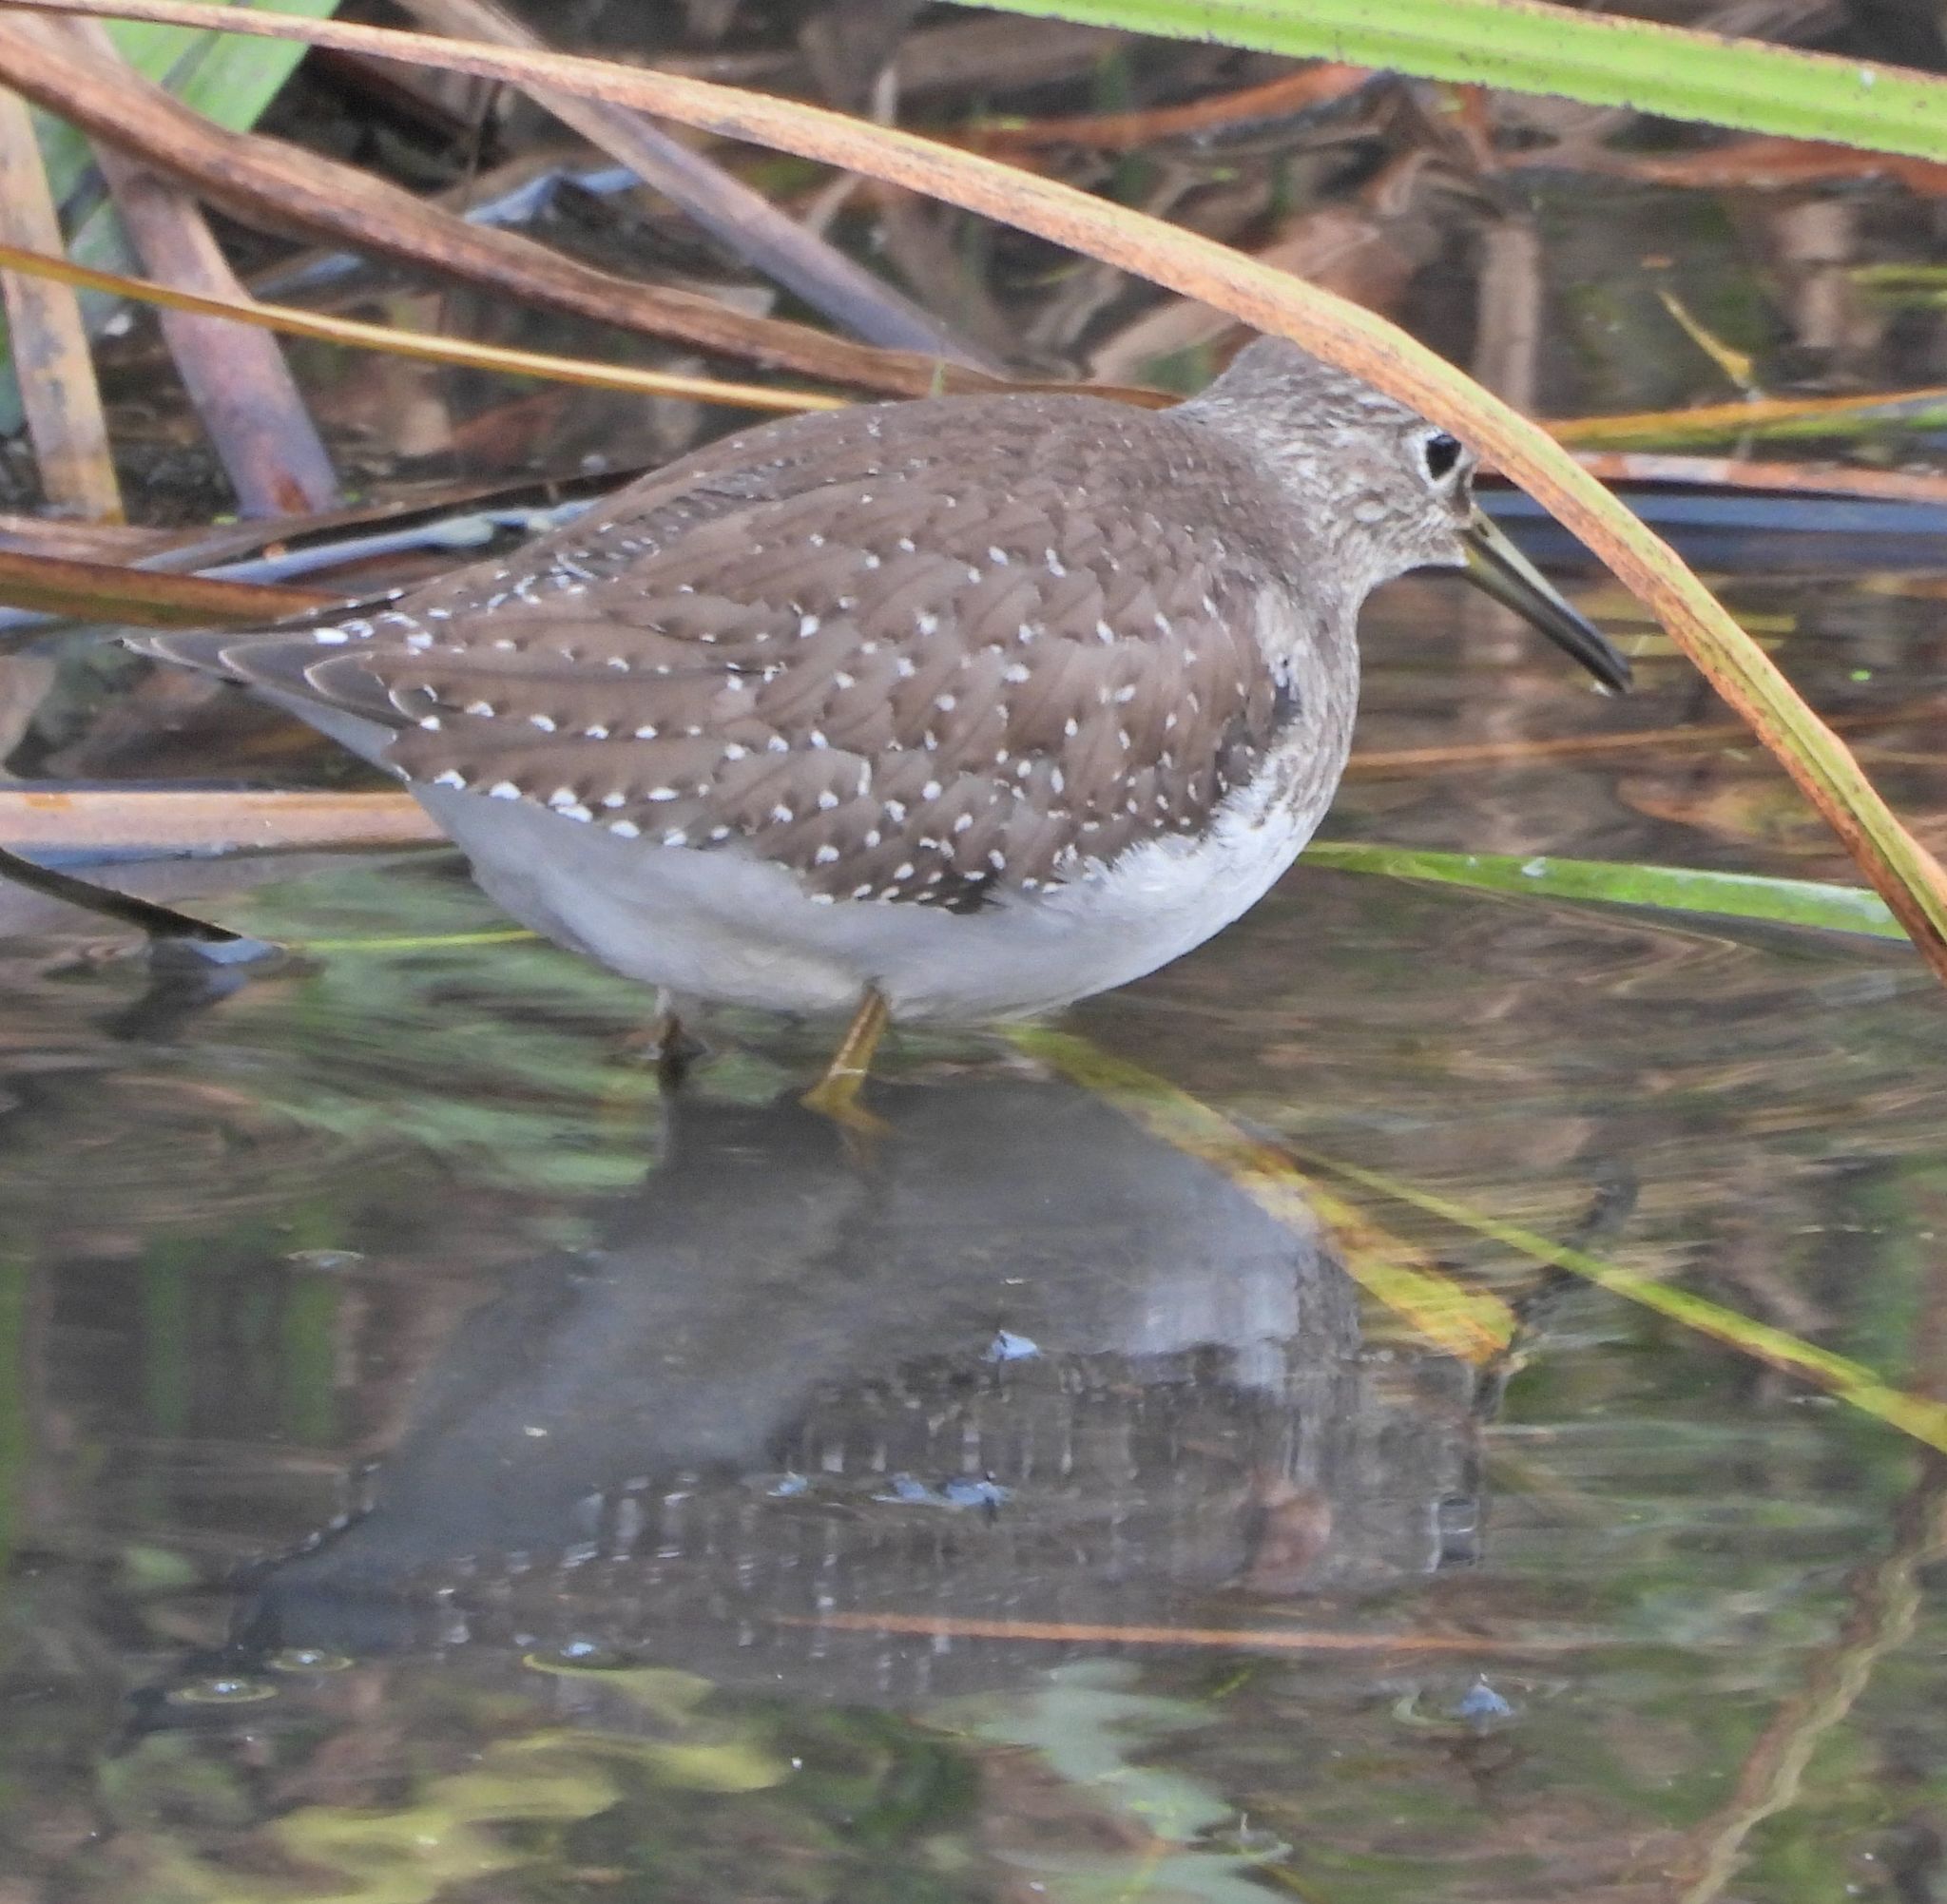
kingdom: Animalia
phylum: Chordata
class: Aves
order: Charadriiformes
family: Scolopacidae
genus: Tringa
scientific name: Tringa solitaria
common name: Solitary sandpiper
